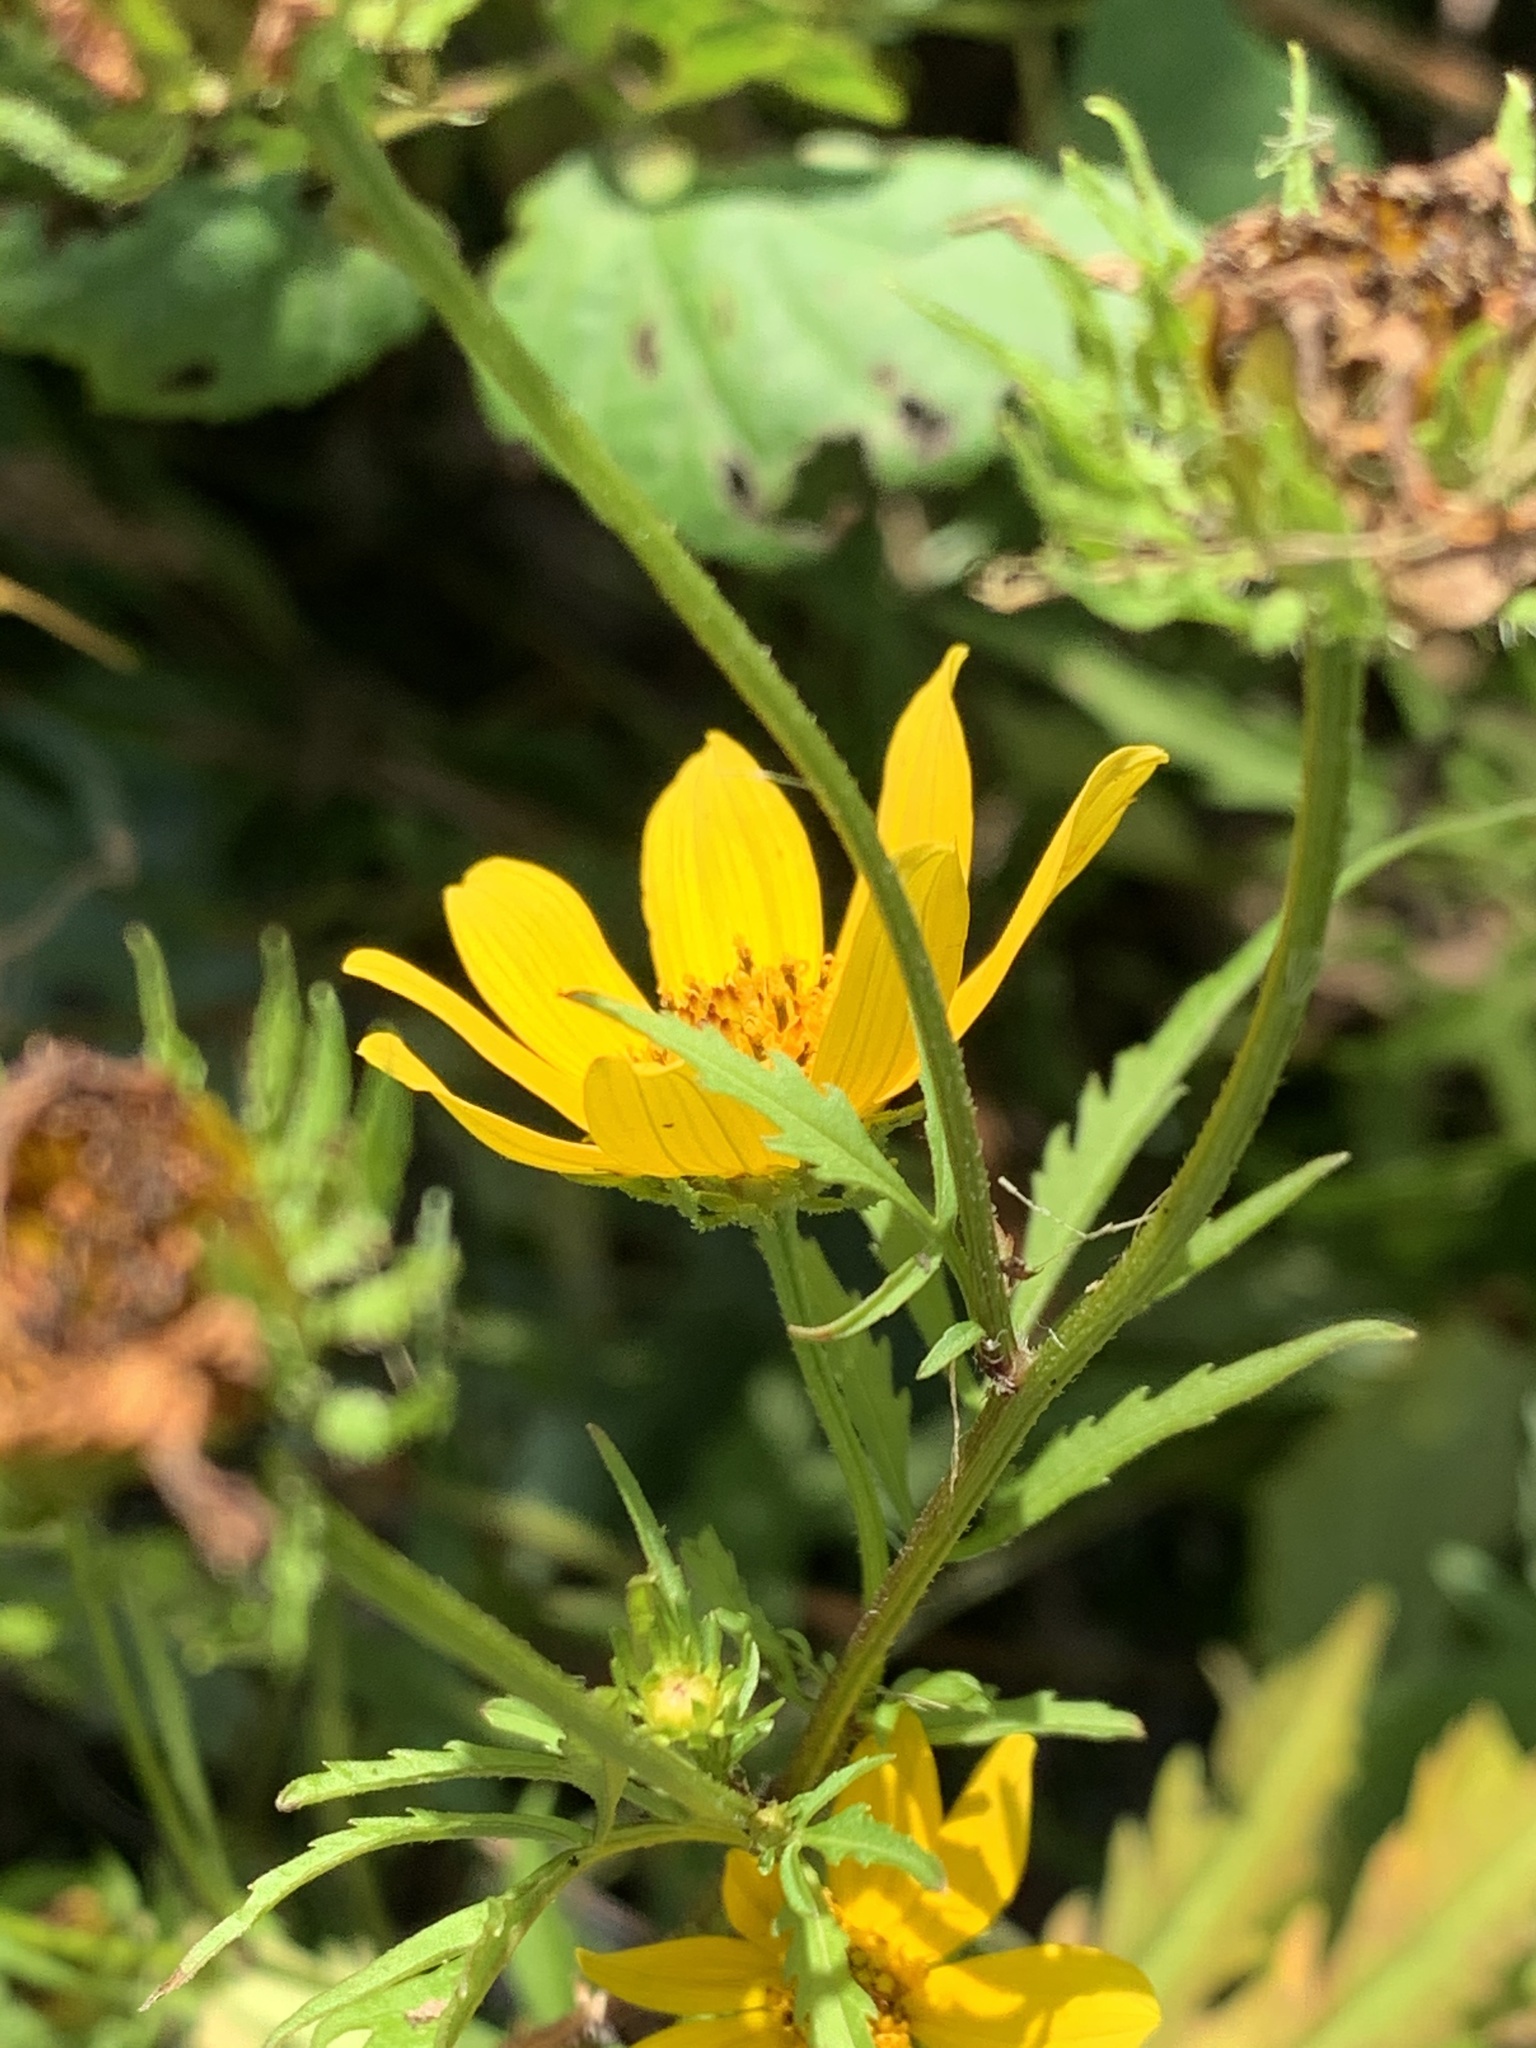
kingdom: Plantae
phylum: Tracheophyta
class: Magnoliopsida
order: Asterales
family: Asteraceae
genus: Bidens
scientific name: Bidens polylepis
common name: Awnless beggarticks
